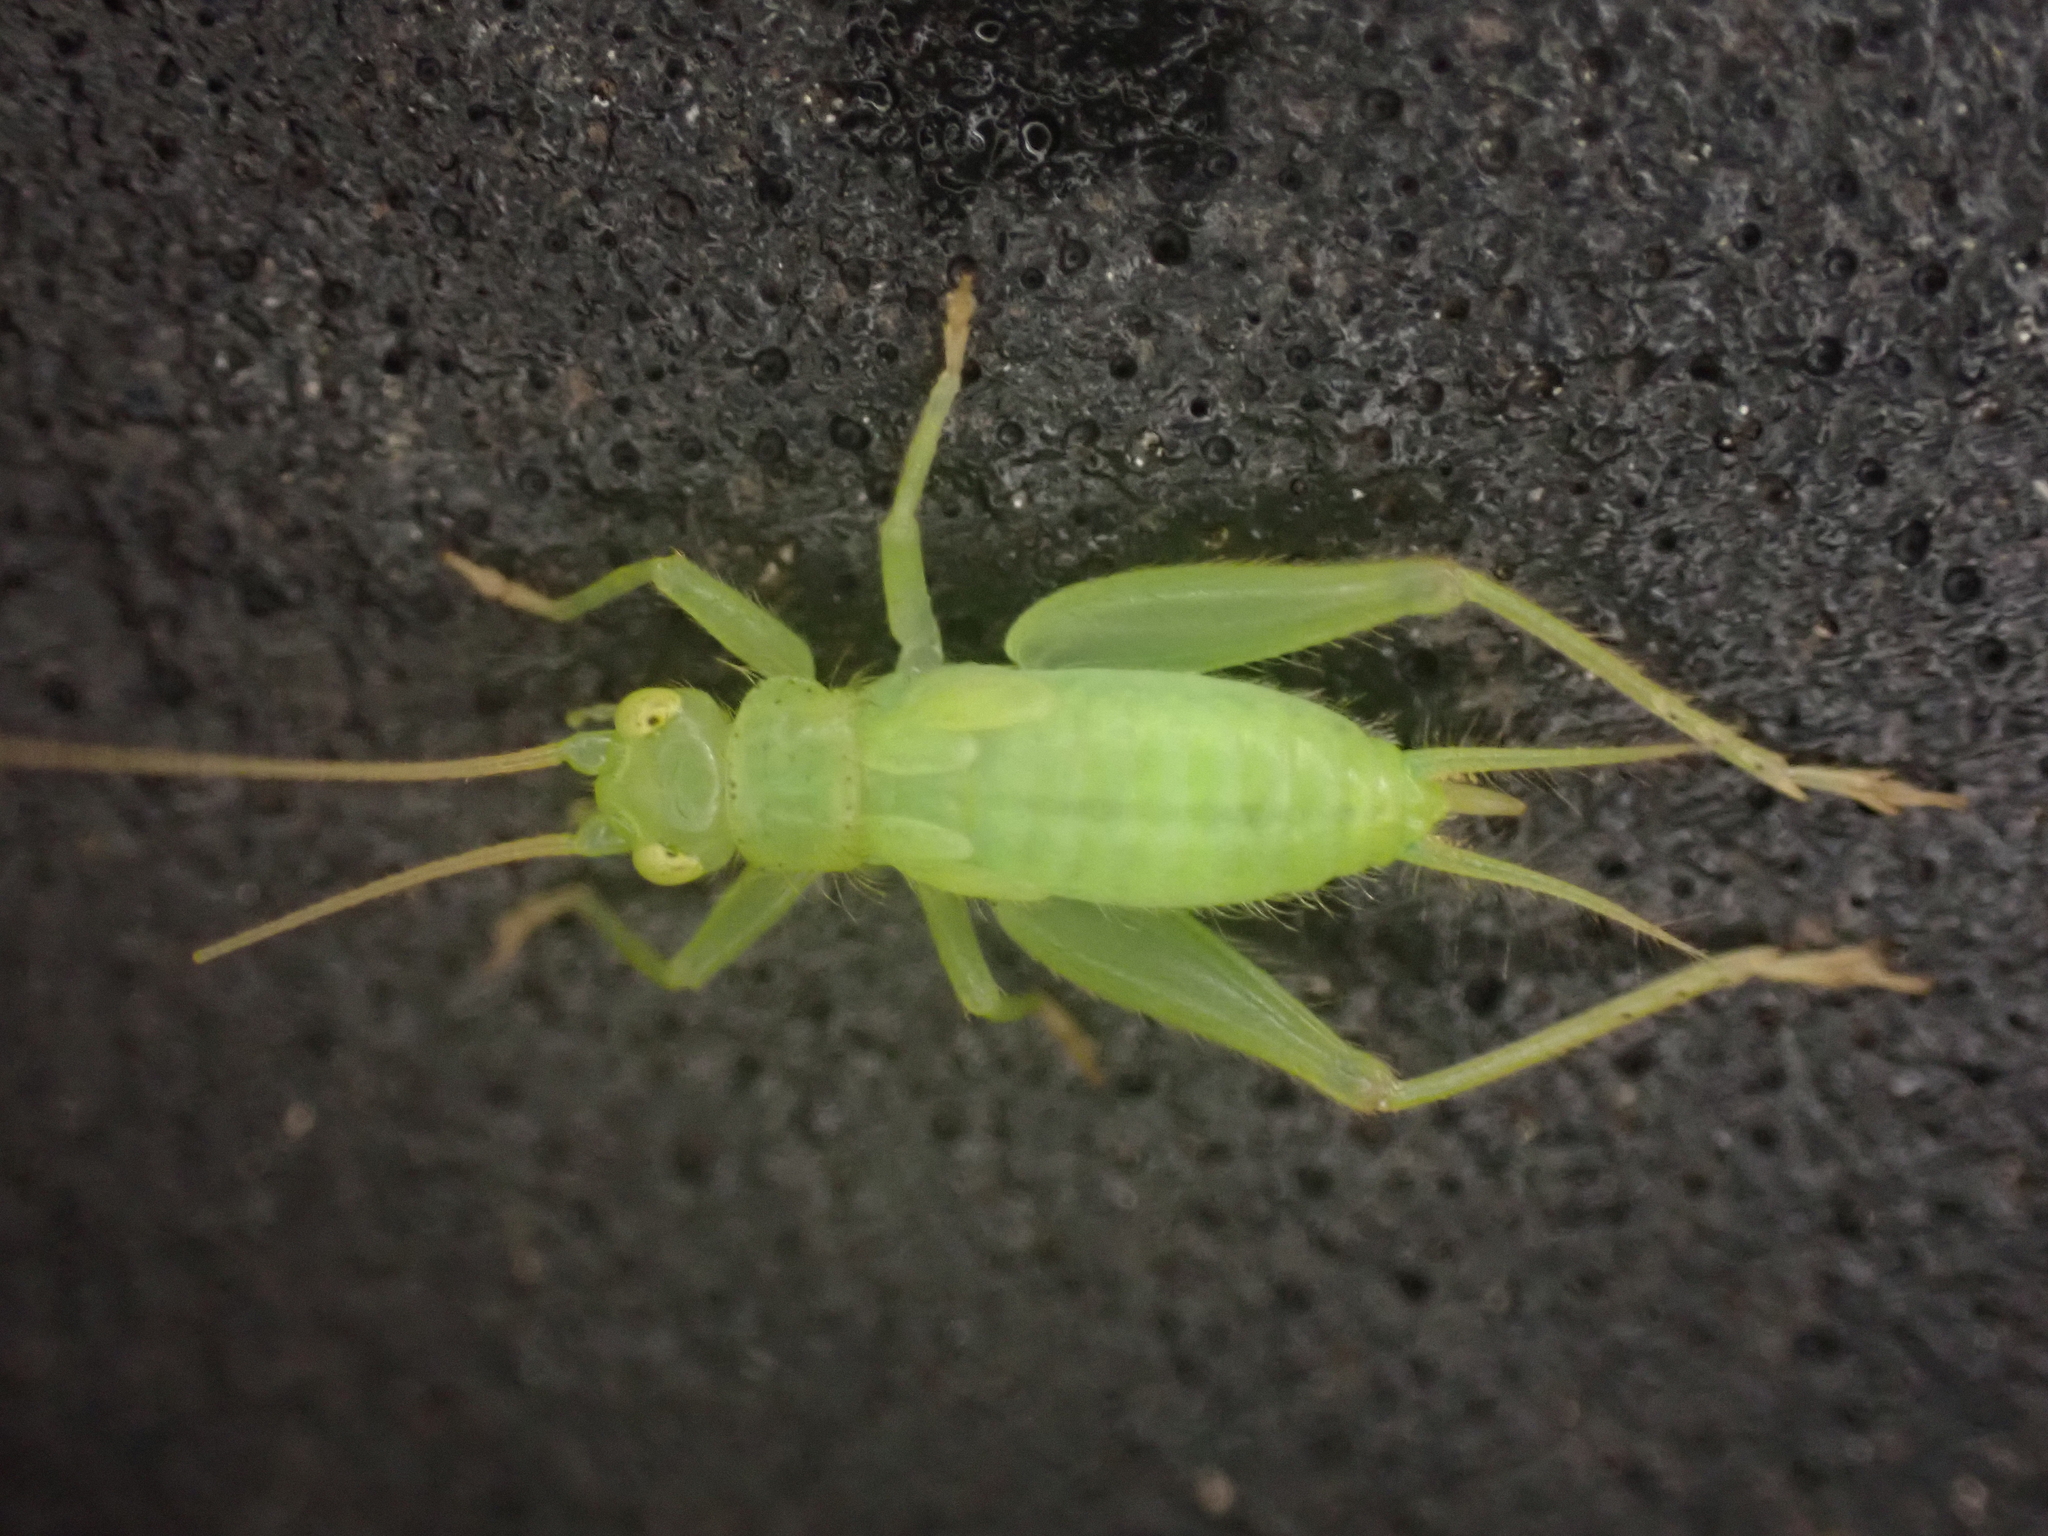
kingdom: Animalia
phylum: Arthropoda
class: Insecta
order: Orthoptera
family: Trigonidiidae
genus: Cyrtoxipha
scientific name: Cyrtoxipha columbiana
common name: Columbian trig
